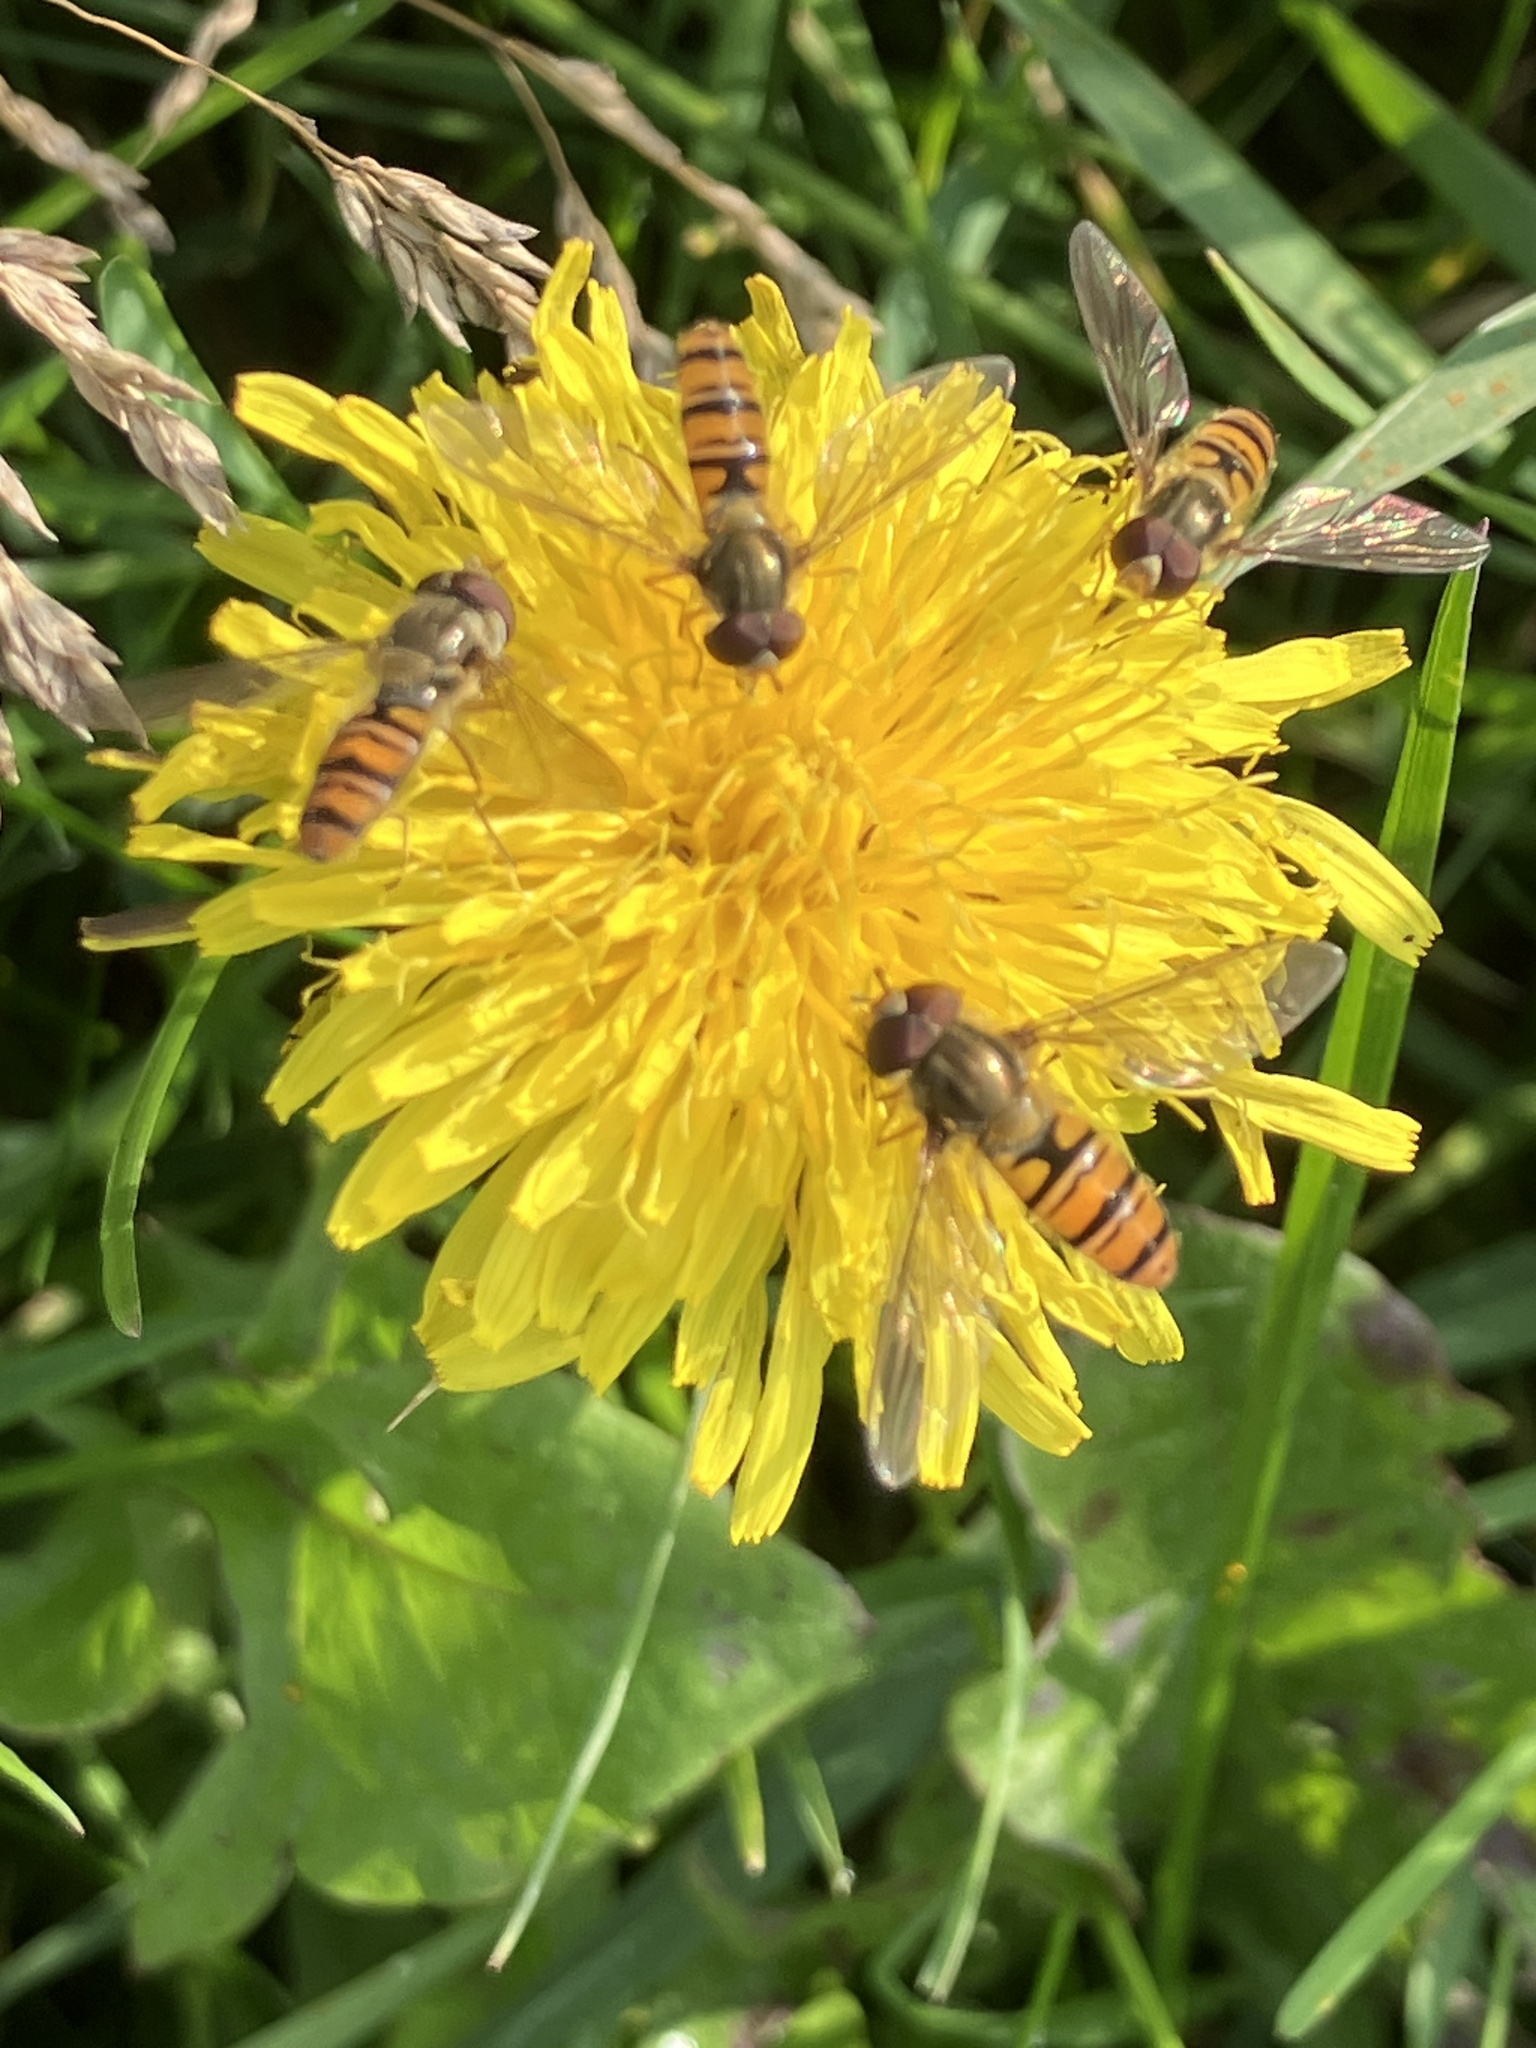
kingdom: Animalia
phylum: Arthropoda
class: Insecta
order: Diptera
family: Syrphidae
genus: Episyrphus
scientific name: Episyrphus balteatus
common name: Marmalade hoverfly
